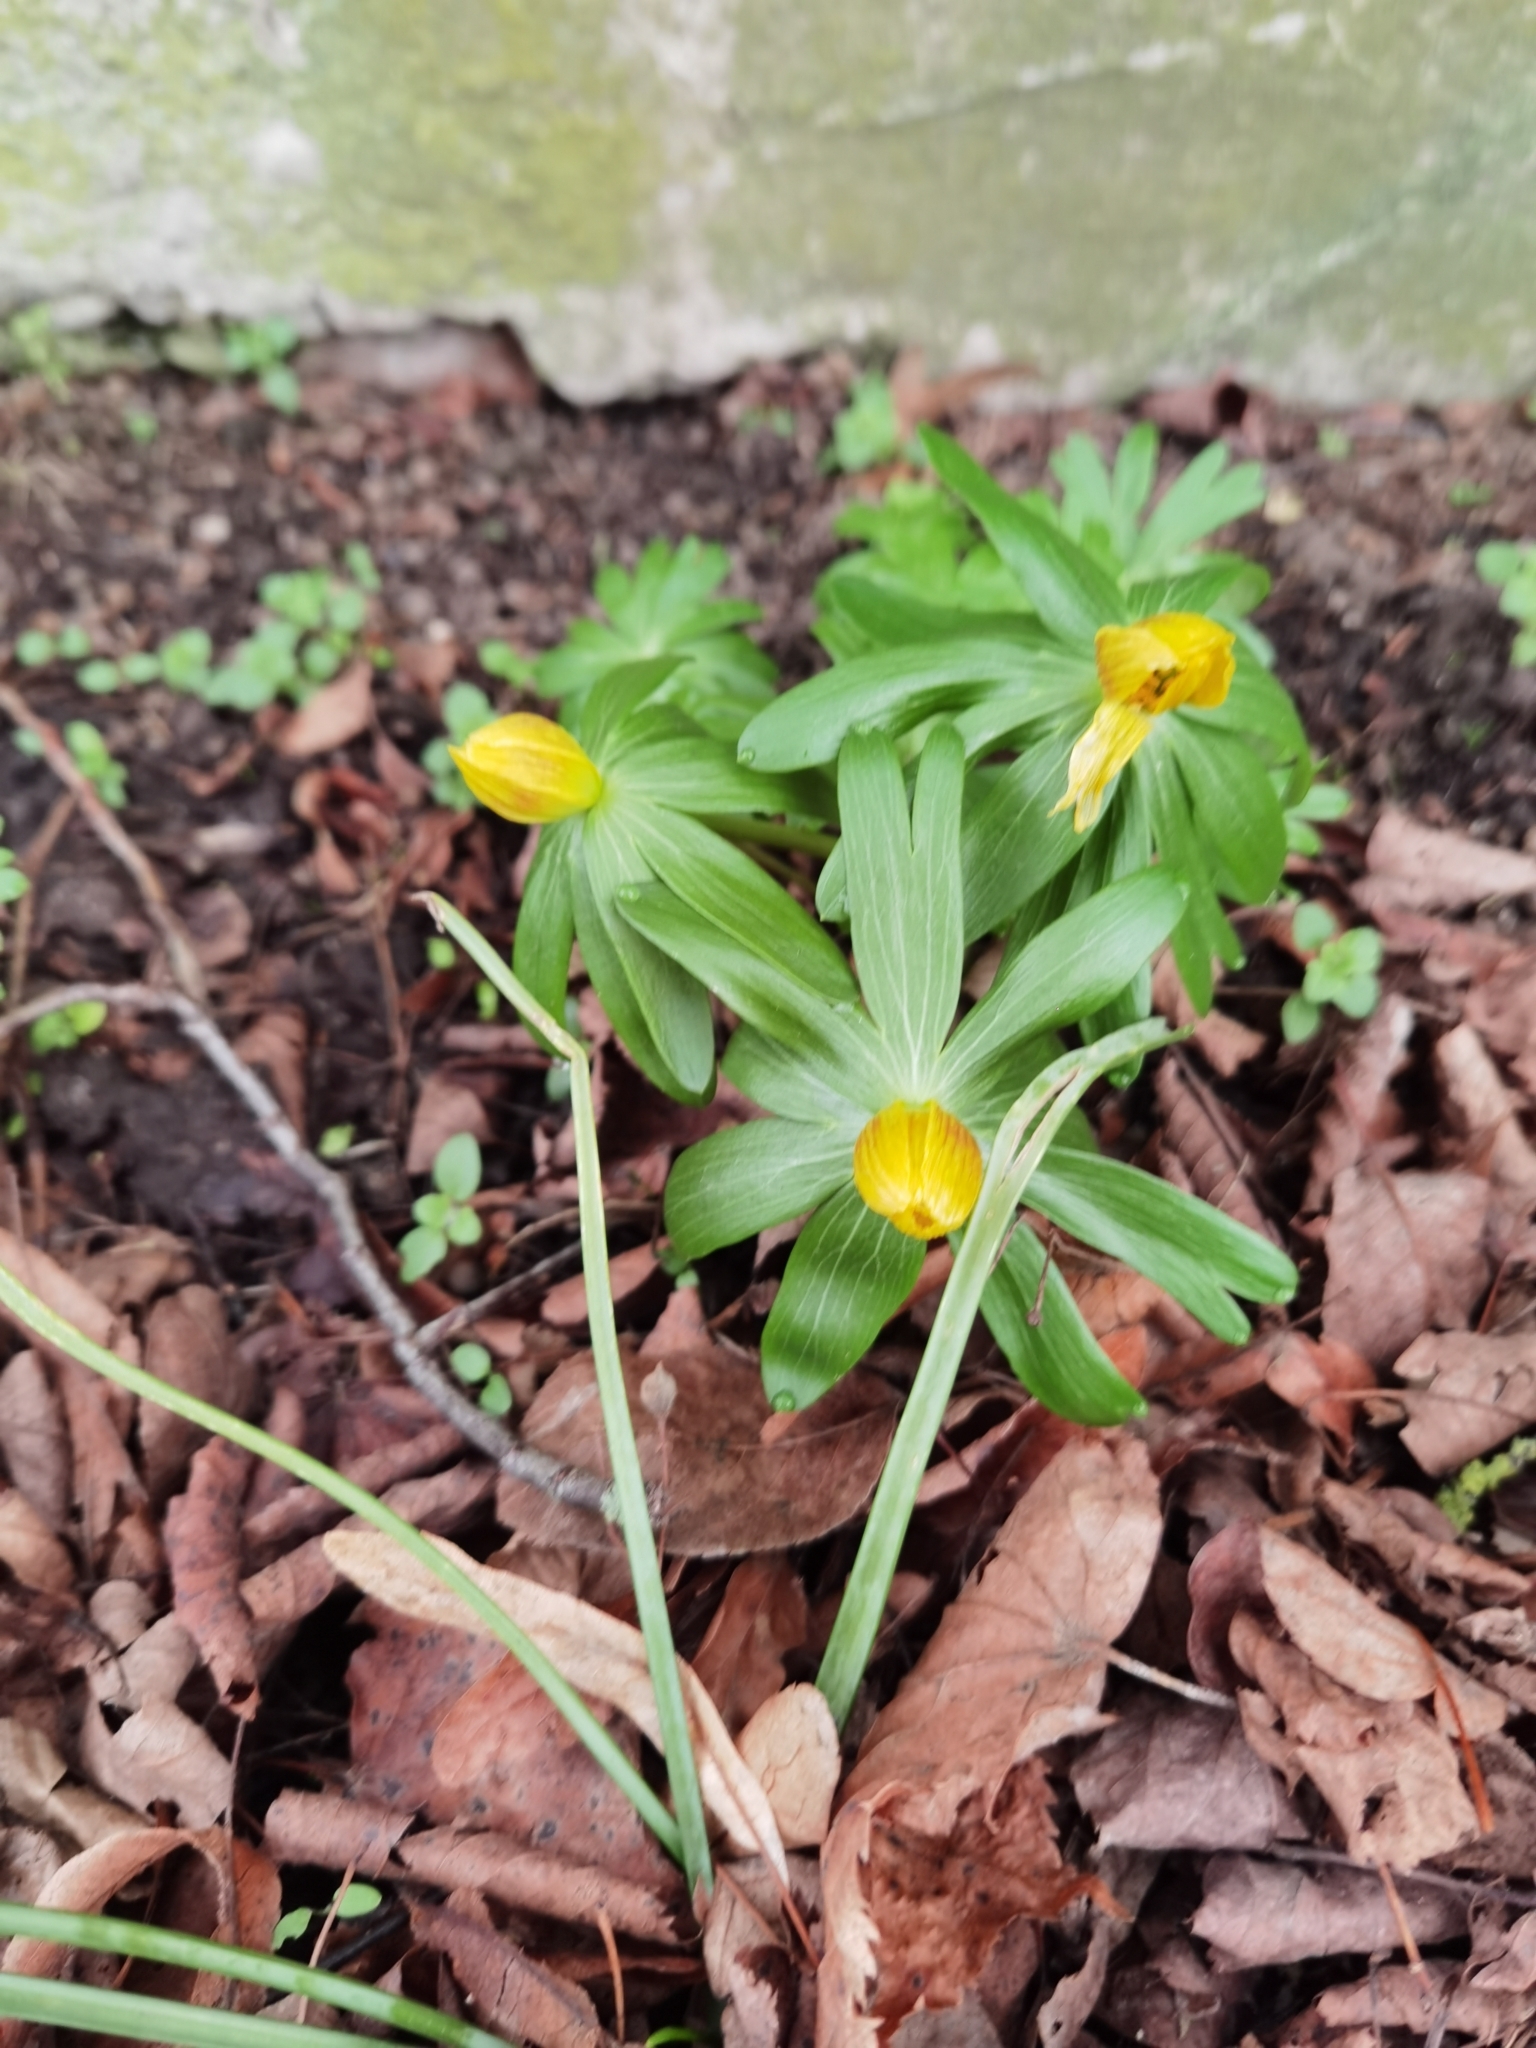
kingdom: Plantae
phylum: Tracheophyta
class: Magnoliopsida
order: Ranunculales
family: Ranunculaceae
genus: Eranthis
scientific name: Eranthis hyemalis
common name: Winter aconite
